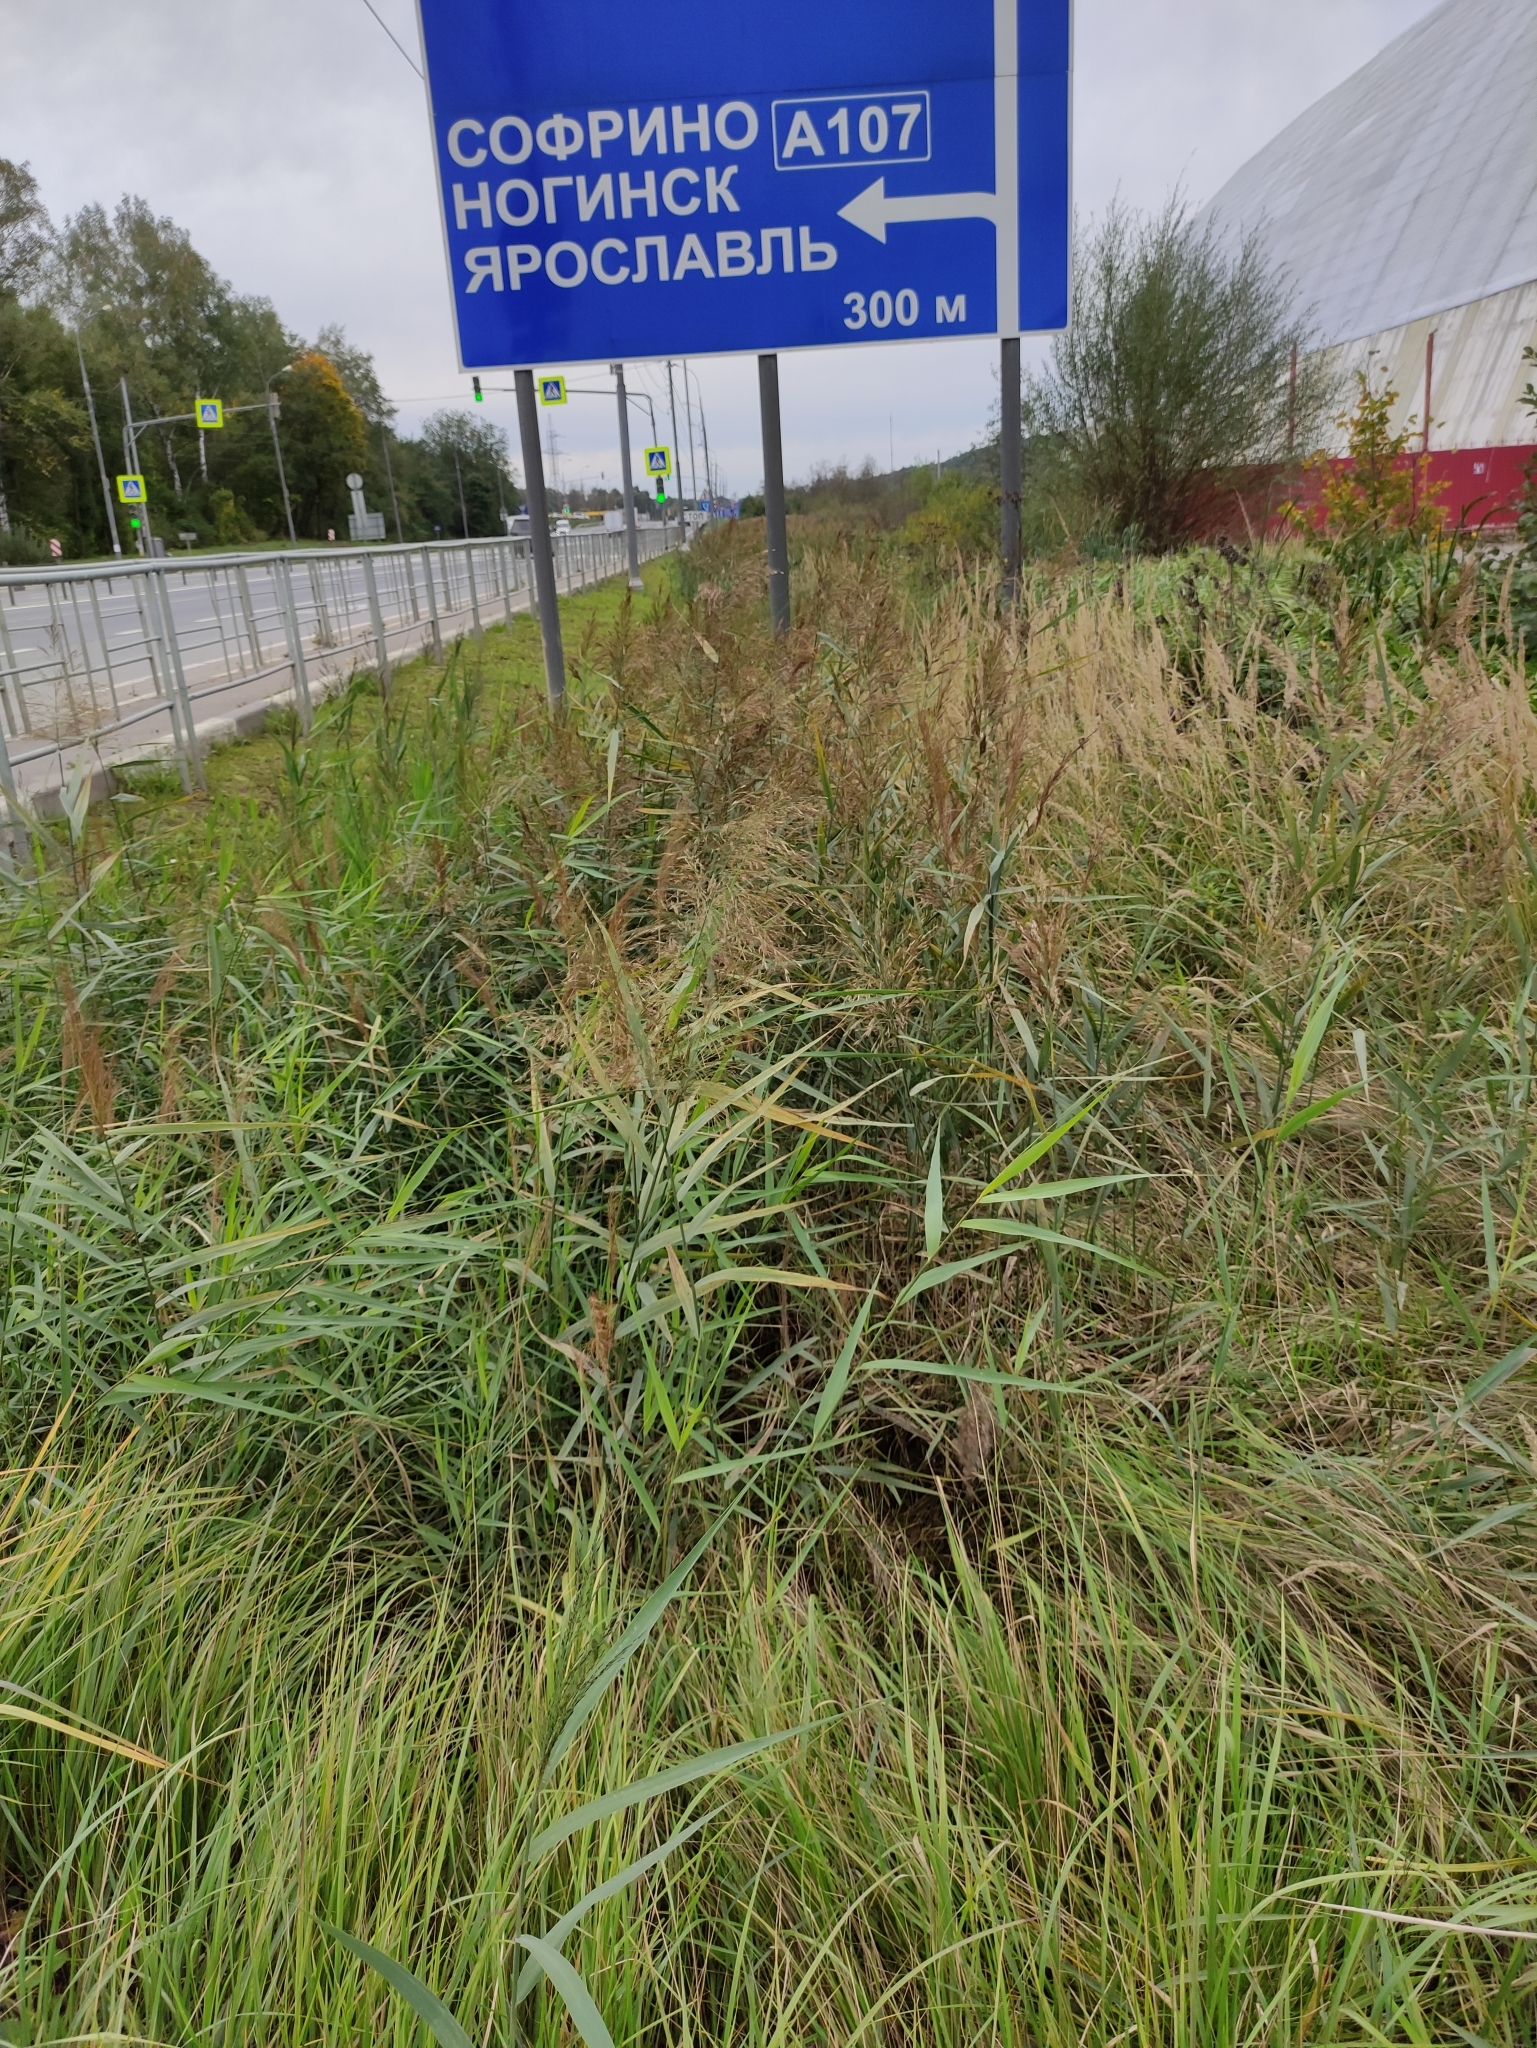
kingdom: Plantae
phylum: Tracheophyta
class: Liliopsida
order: Poales
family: Poaceae
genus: Phragmites
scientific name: Phragmites australis
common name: Common reed
